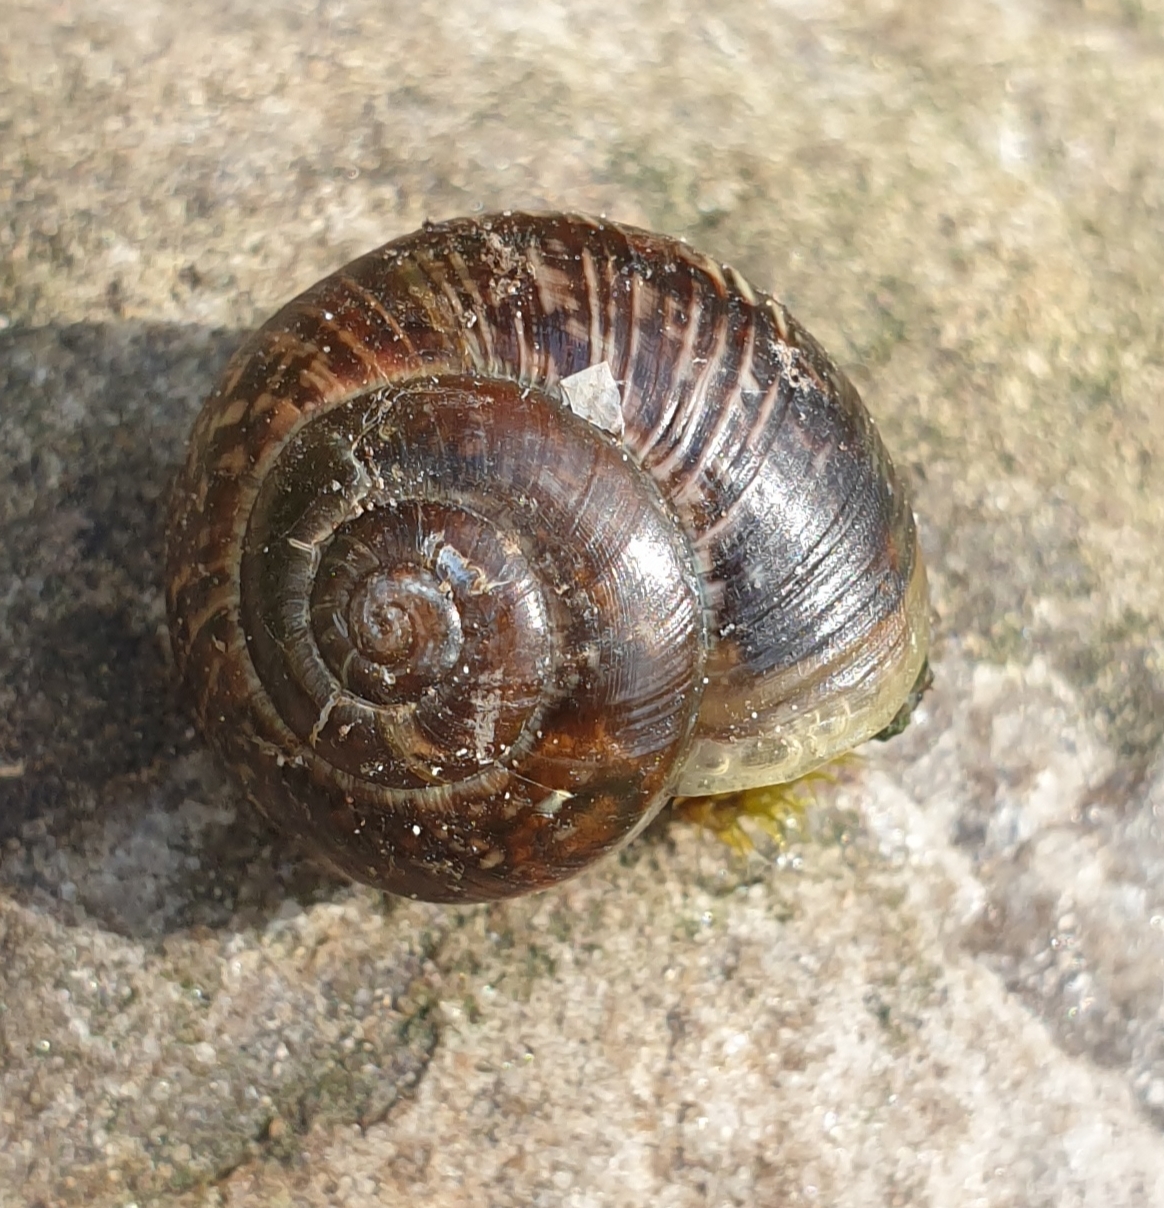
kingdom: Animalia
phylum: Mollusca
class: Gastropoda
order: Stylommatophora
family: Helicidae
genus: Arianta
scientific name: Arianta arbustorum
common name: Copse snail
